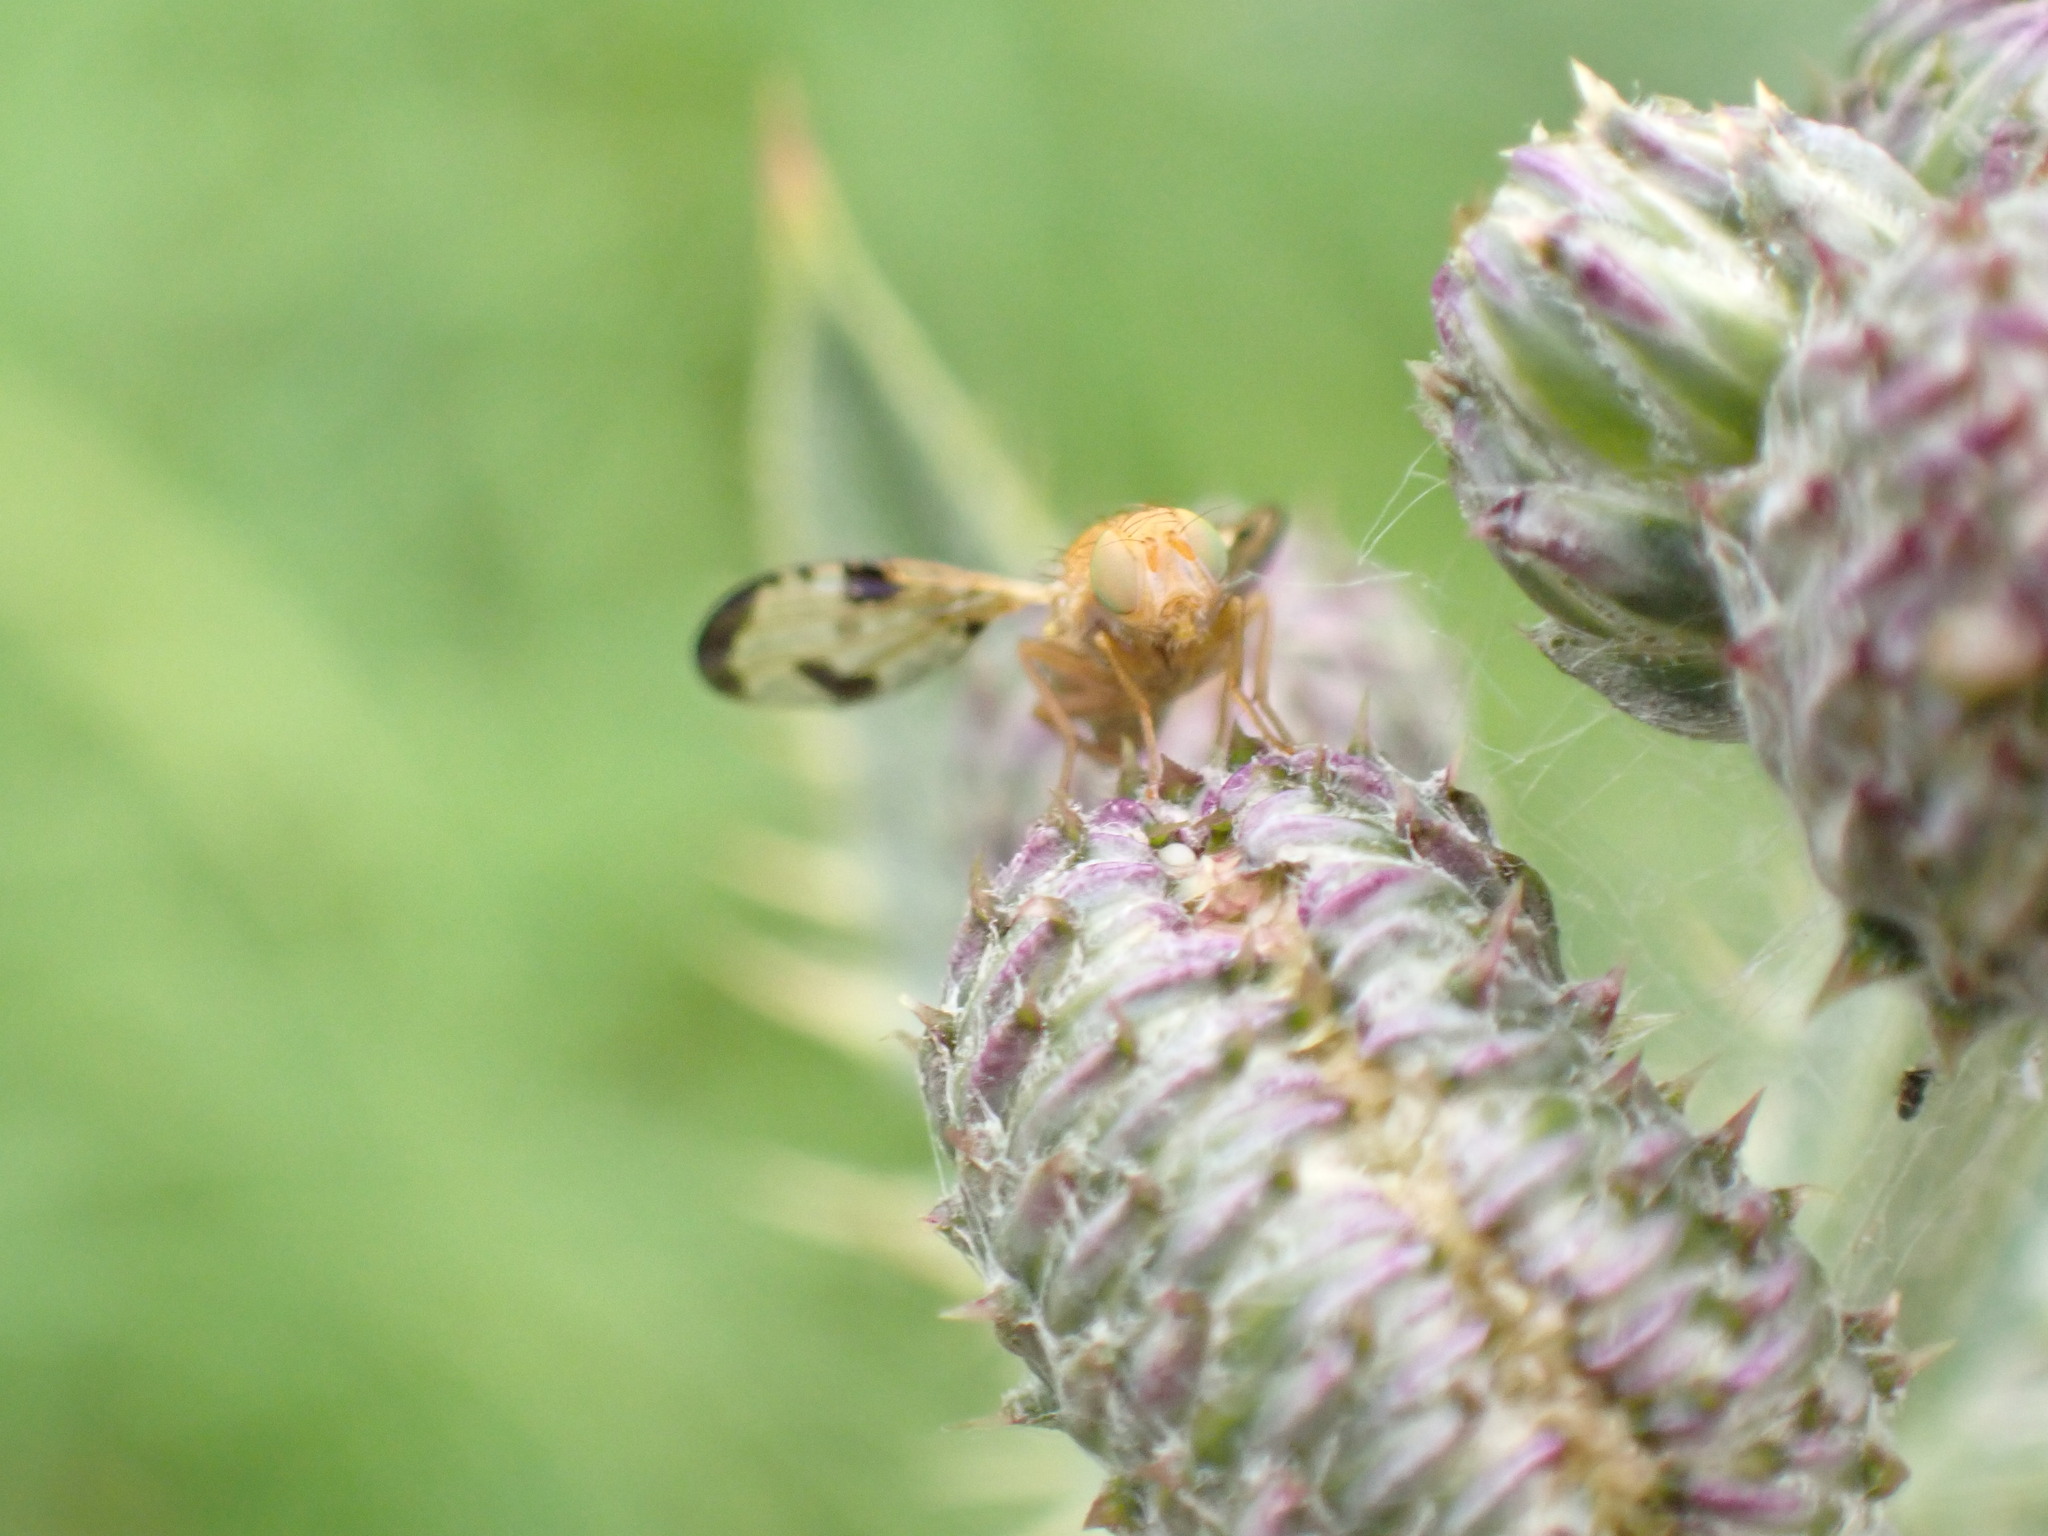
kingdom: Animalia
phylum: Arthropoda
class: Insecta
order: Diptera
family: Tephritidae
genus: Xyphosia
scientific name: Xyphosia miliaria
